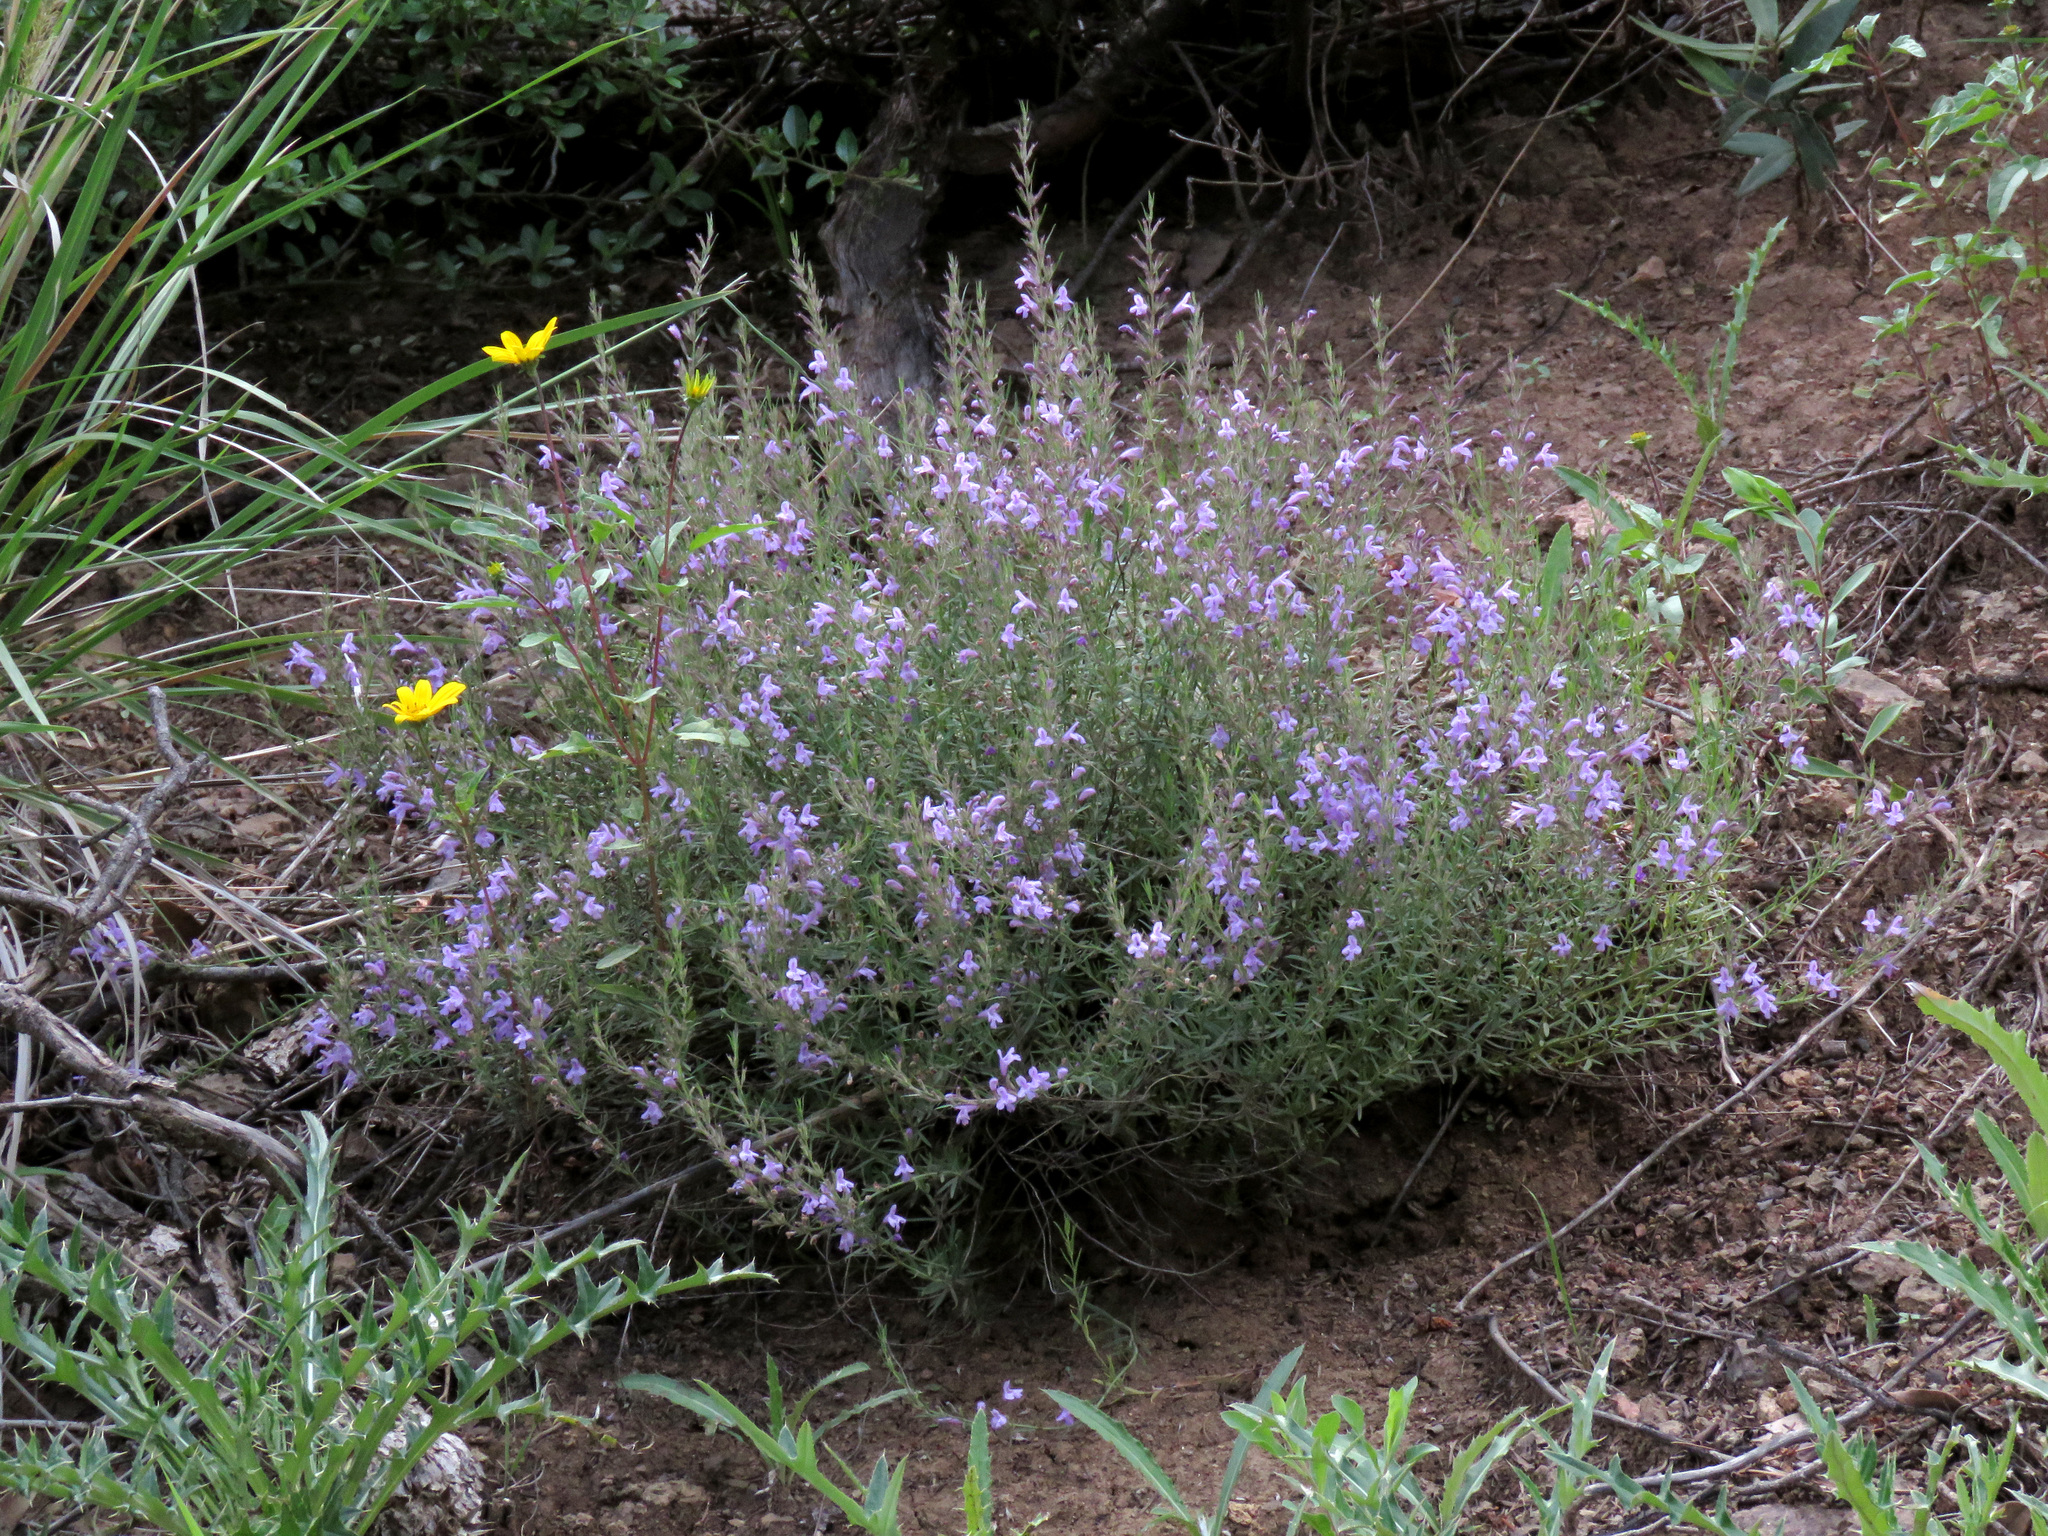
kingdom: Plantae
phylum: Tracheophyta
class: Magnoliopsida
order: Lamiales
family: Lamiaceae
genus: Hedeoma
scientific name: Hedeoma hyssopifolia
